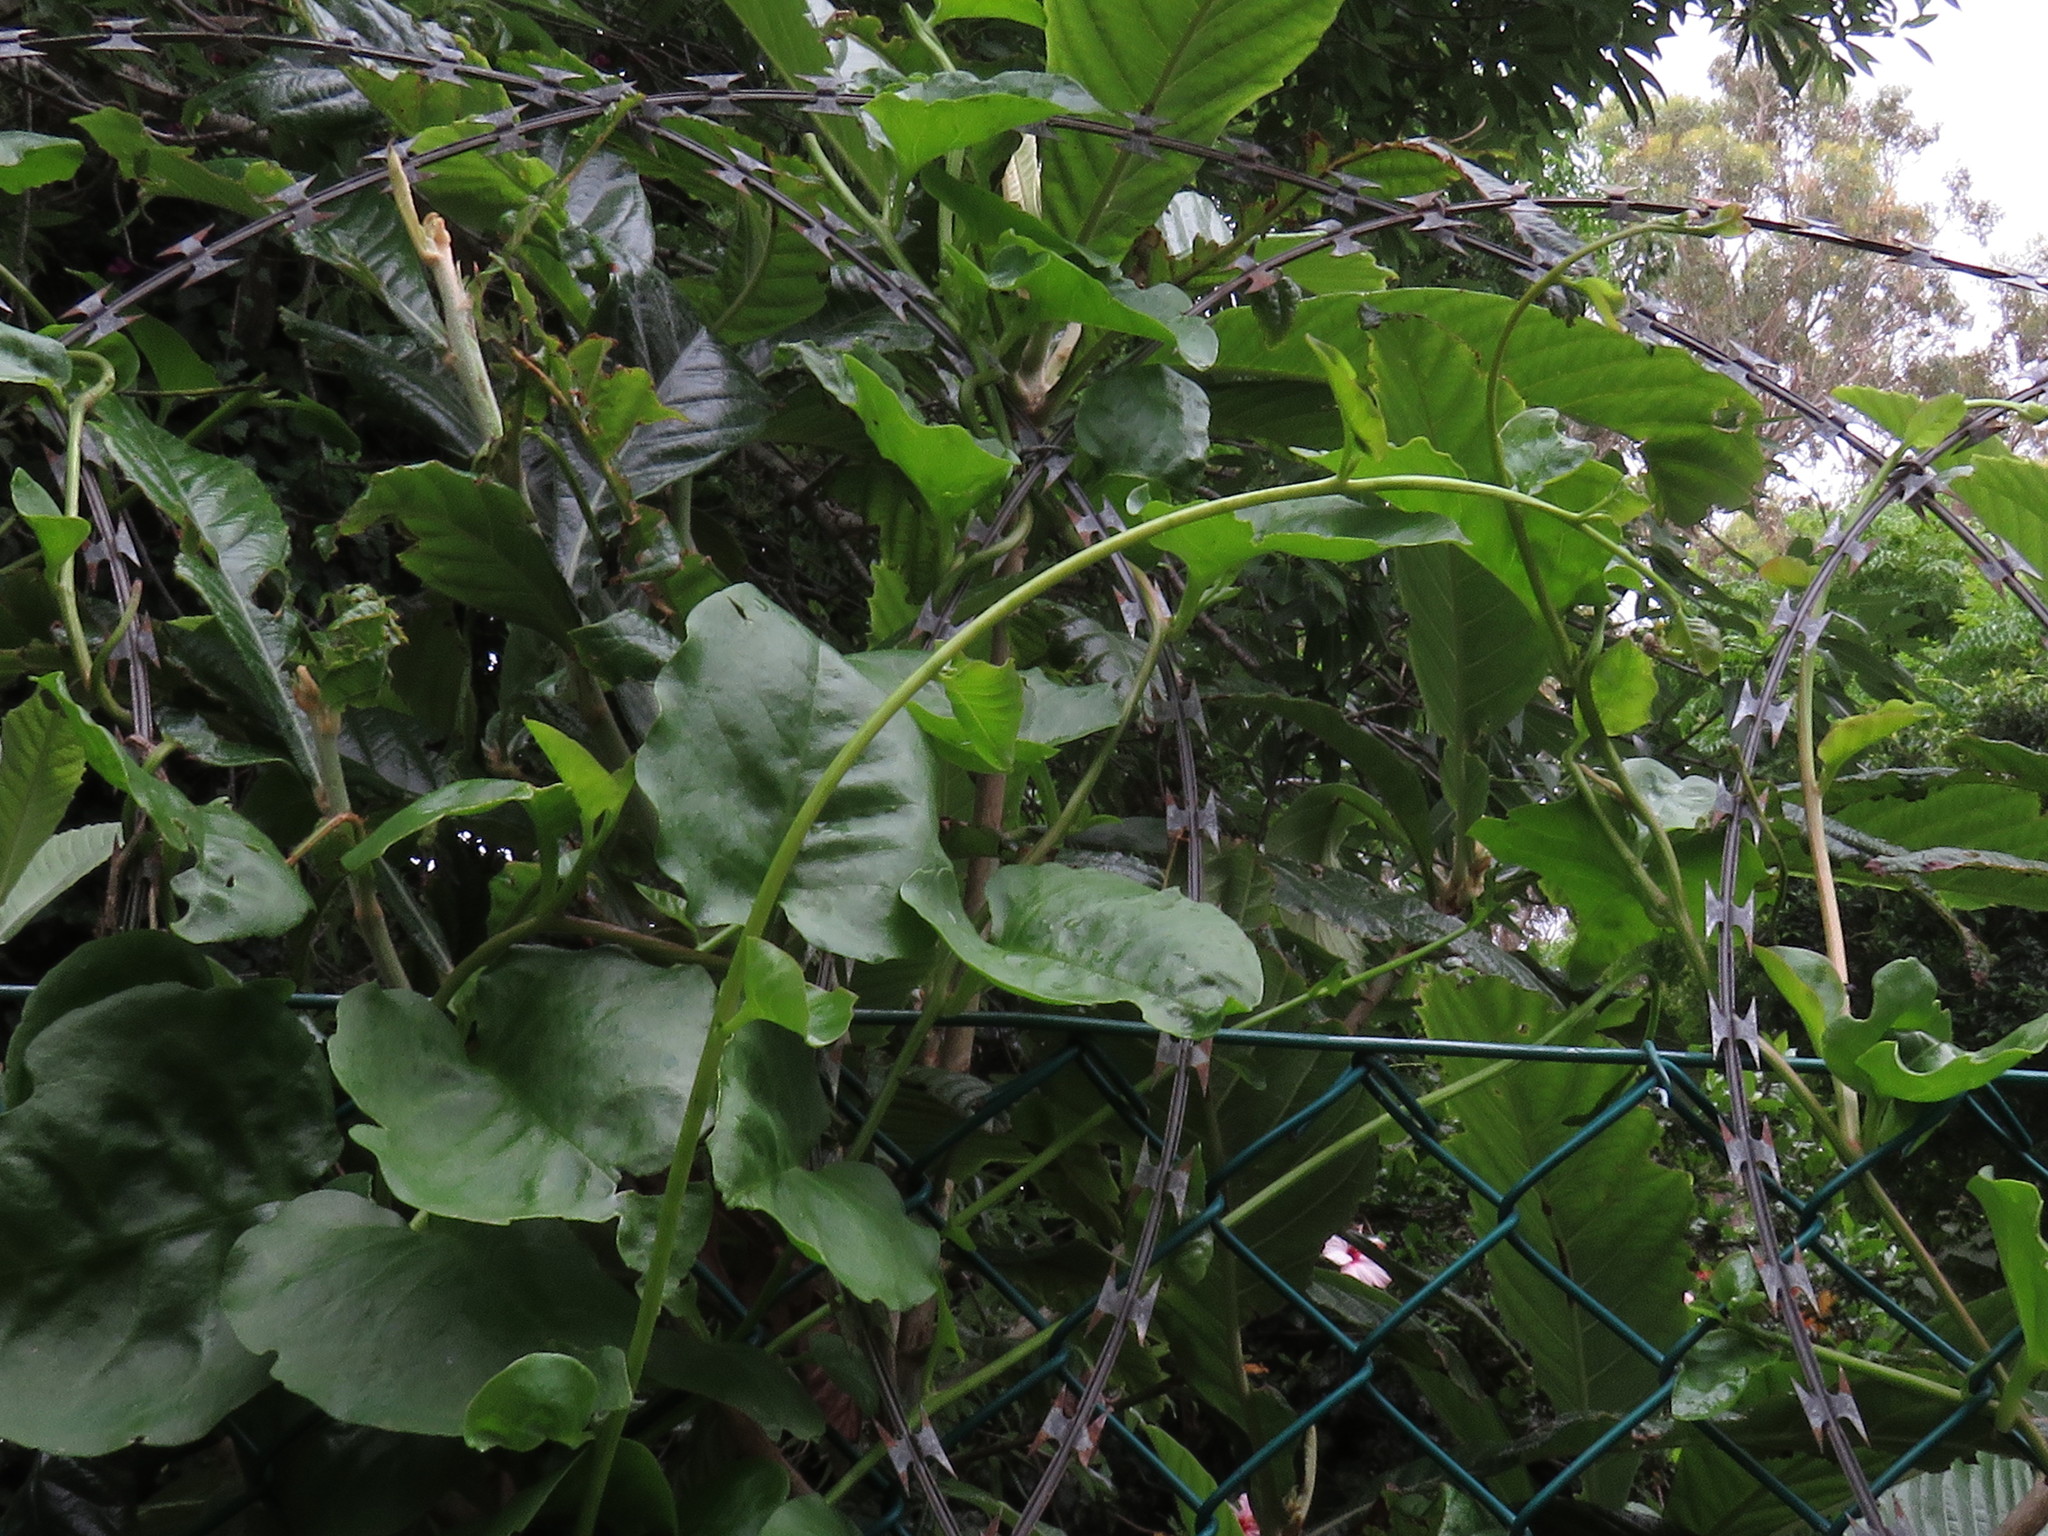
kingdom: Plantae
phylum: Tracheophyta
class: Magnoliopsida
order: Caryophyllales
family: Basellaceae
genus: Anredera
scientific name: Anredera cordifolia
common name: Heartleaf madeiravine
